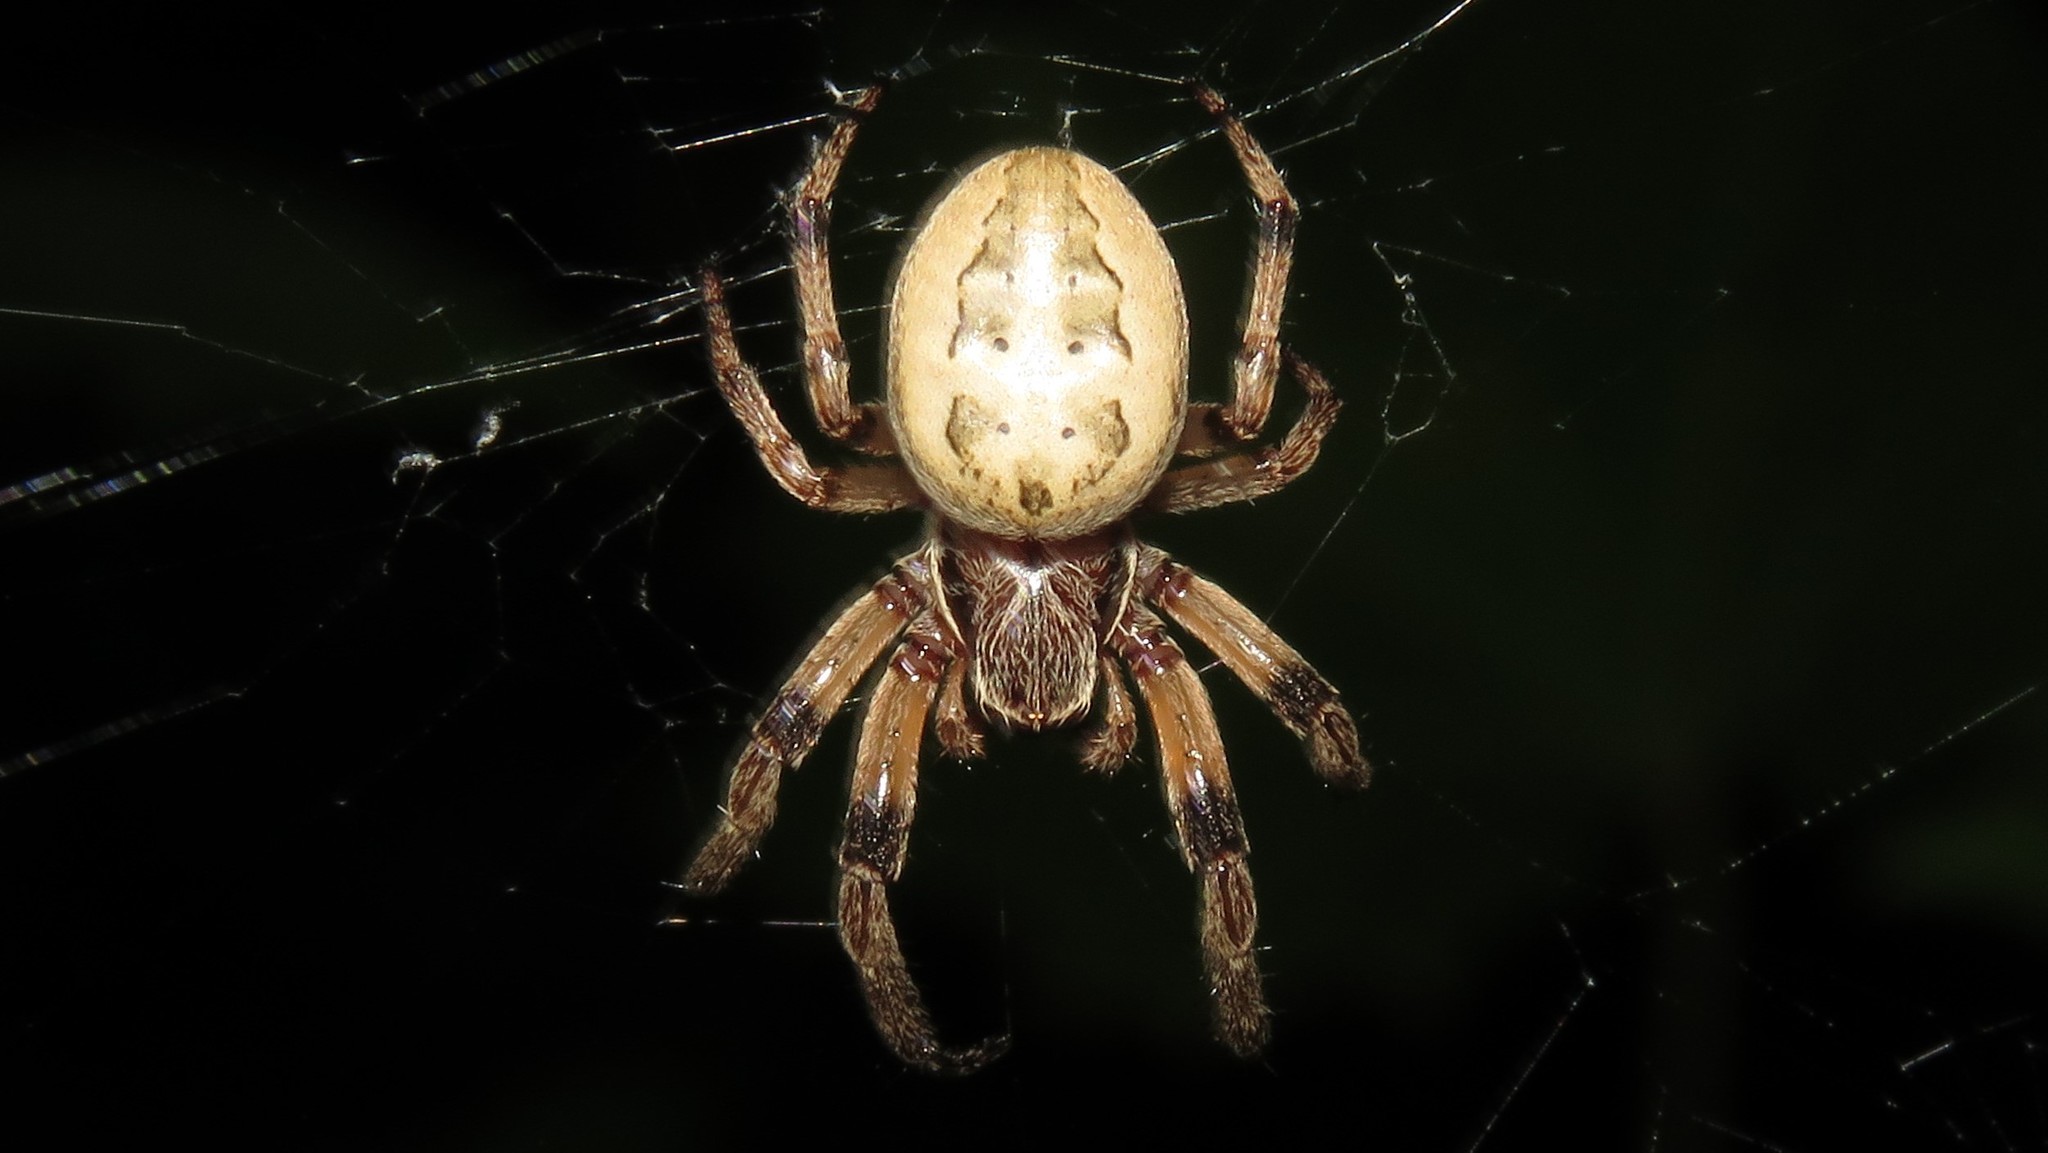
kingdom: Animalia
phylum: Arthropoda
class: Arachnida
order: Araneae
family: Araneidae
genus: Larinioides
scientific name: Larinioides cornutus
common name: Furrow orbweaver
